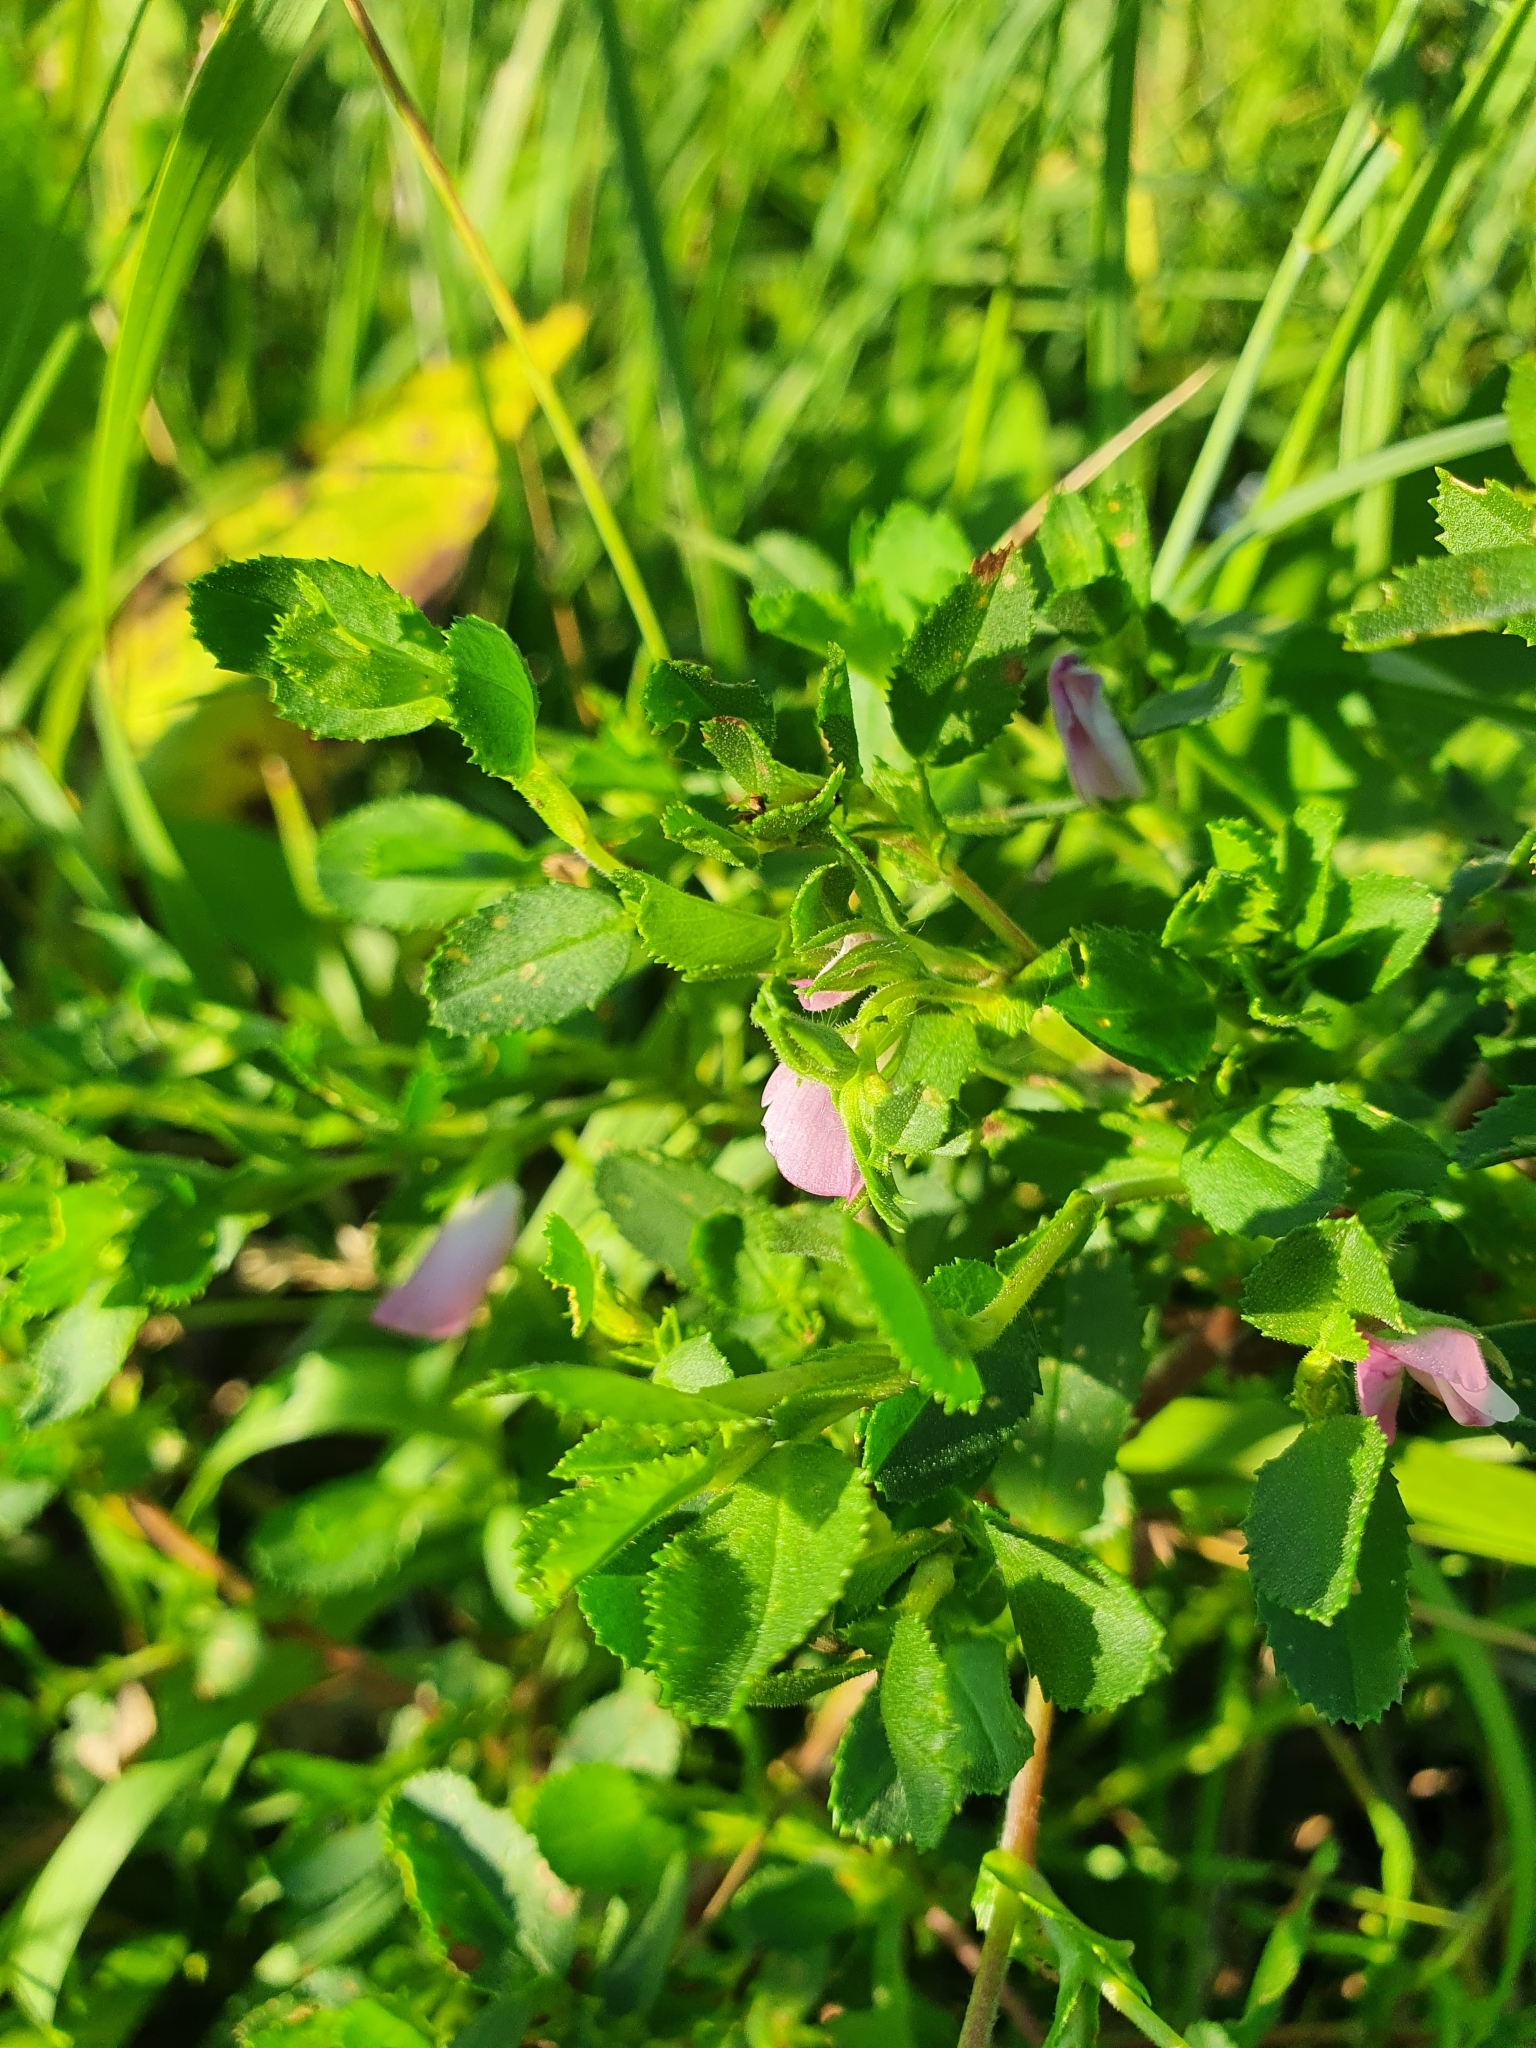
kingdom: Plantae
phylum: Tracheophyta
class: Magnoliopsida
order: Fabales
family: Fabaceae
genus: Ononis
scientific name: Ononis arvensis
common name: Field restharrow
